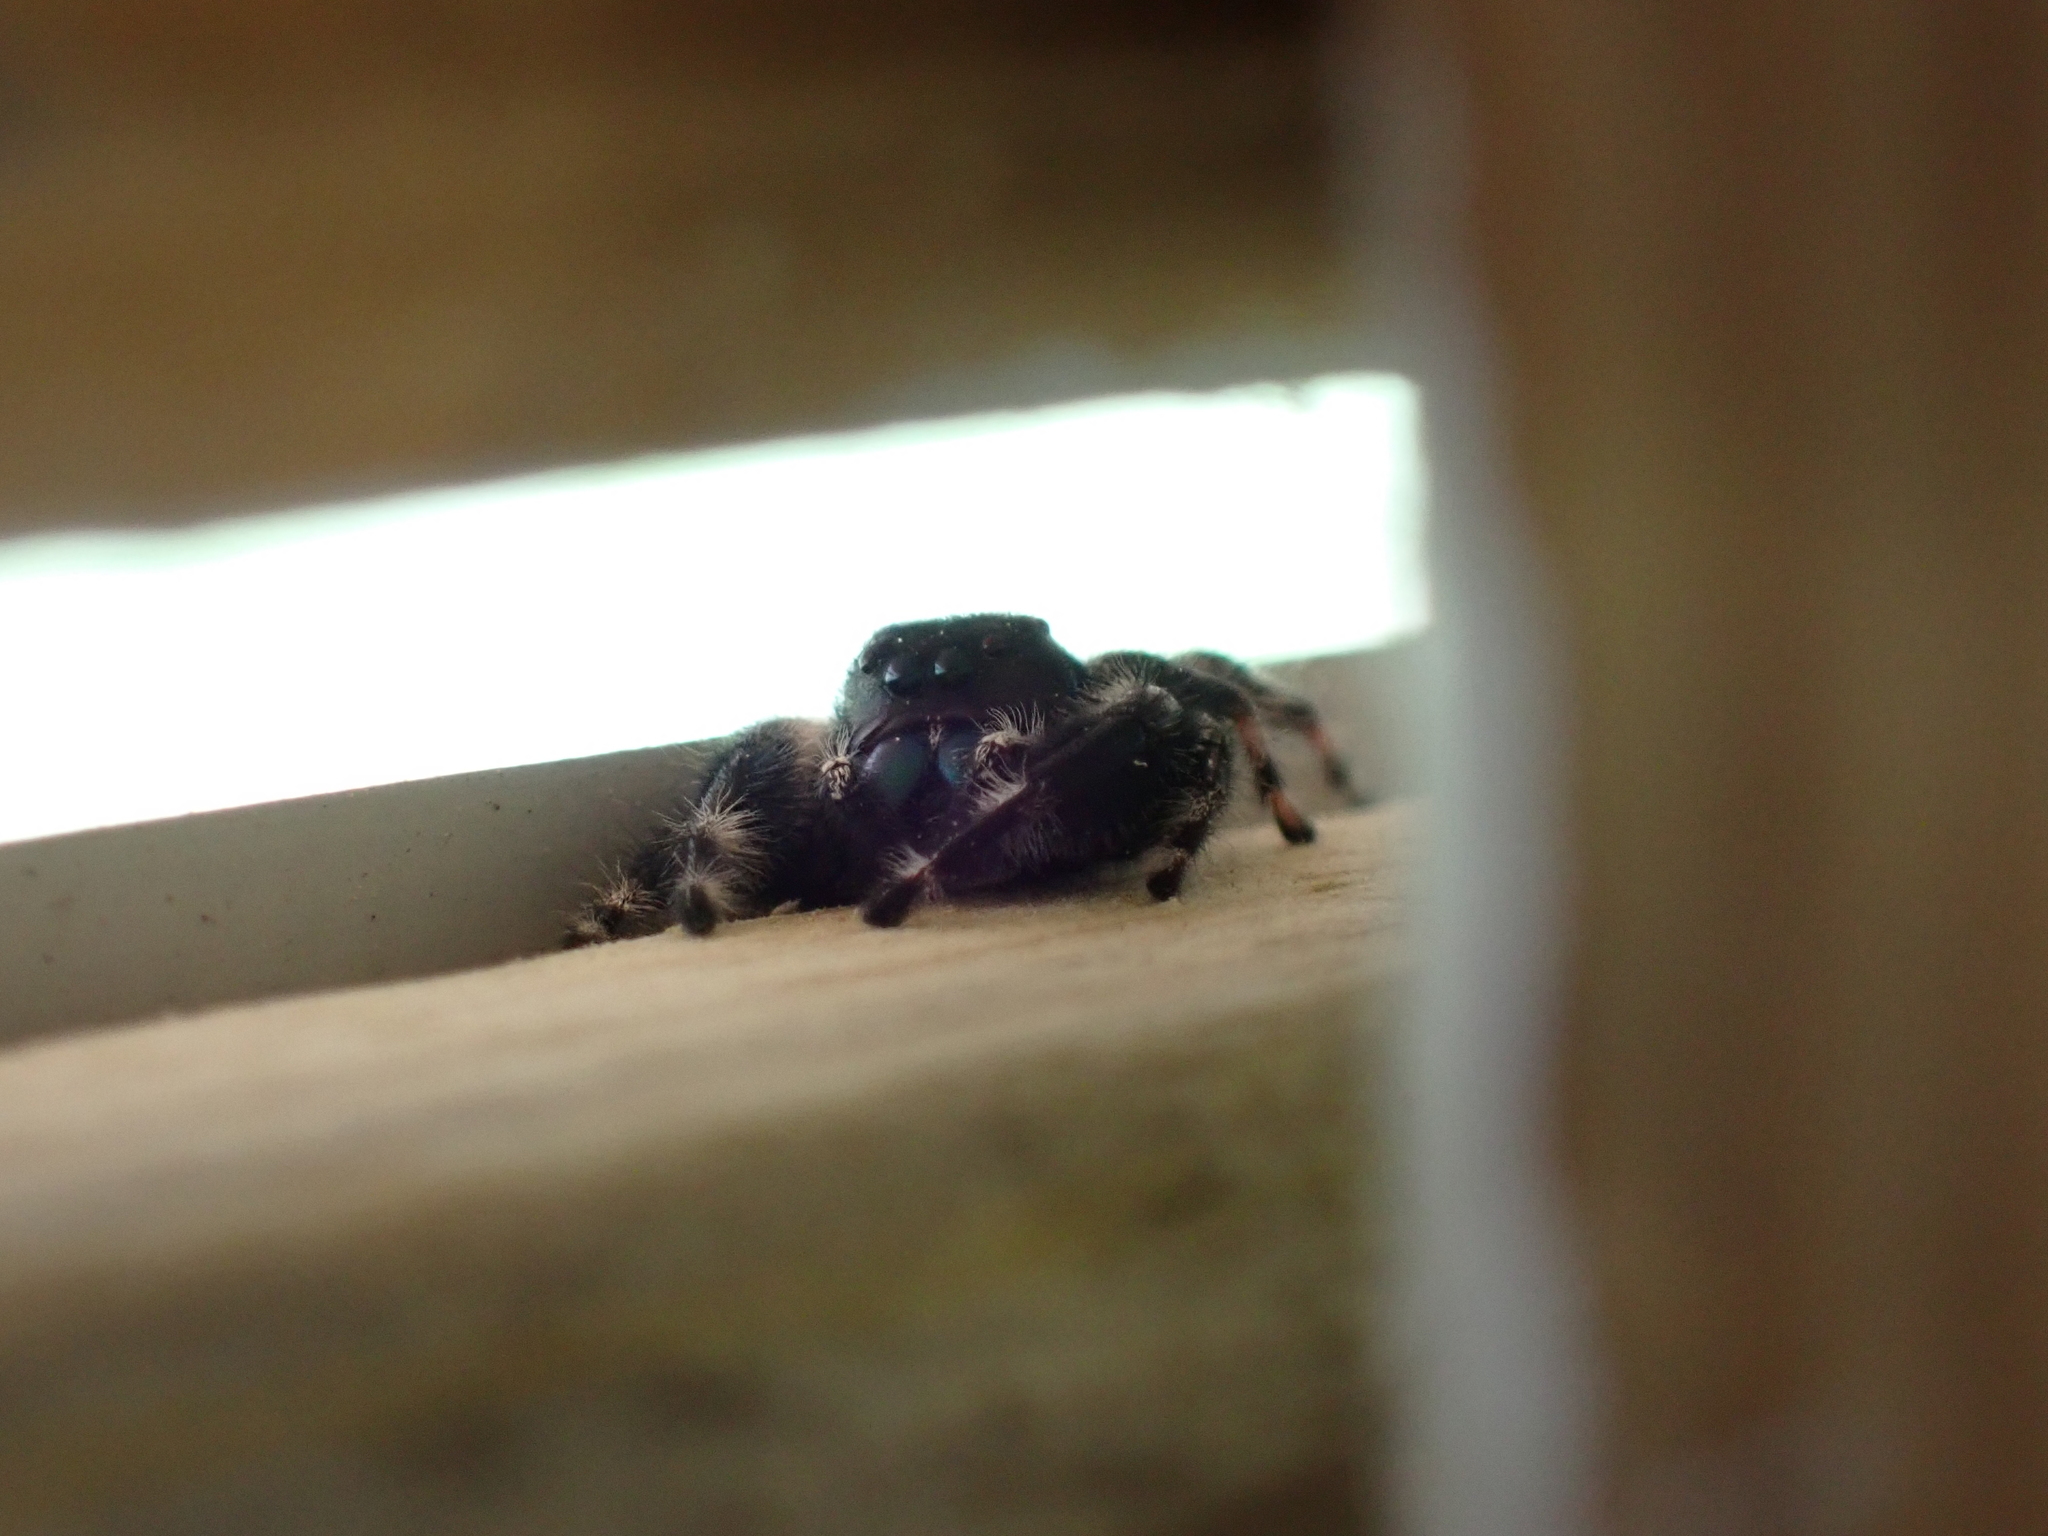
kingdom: Animalia
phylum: Arthropoda
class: Arachnida
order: Araneae
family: Salticidae
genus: Phidippus
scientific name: Phidippus audax
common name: Bold jumper
